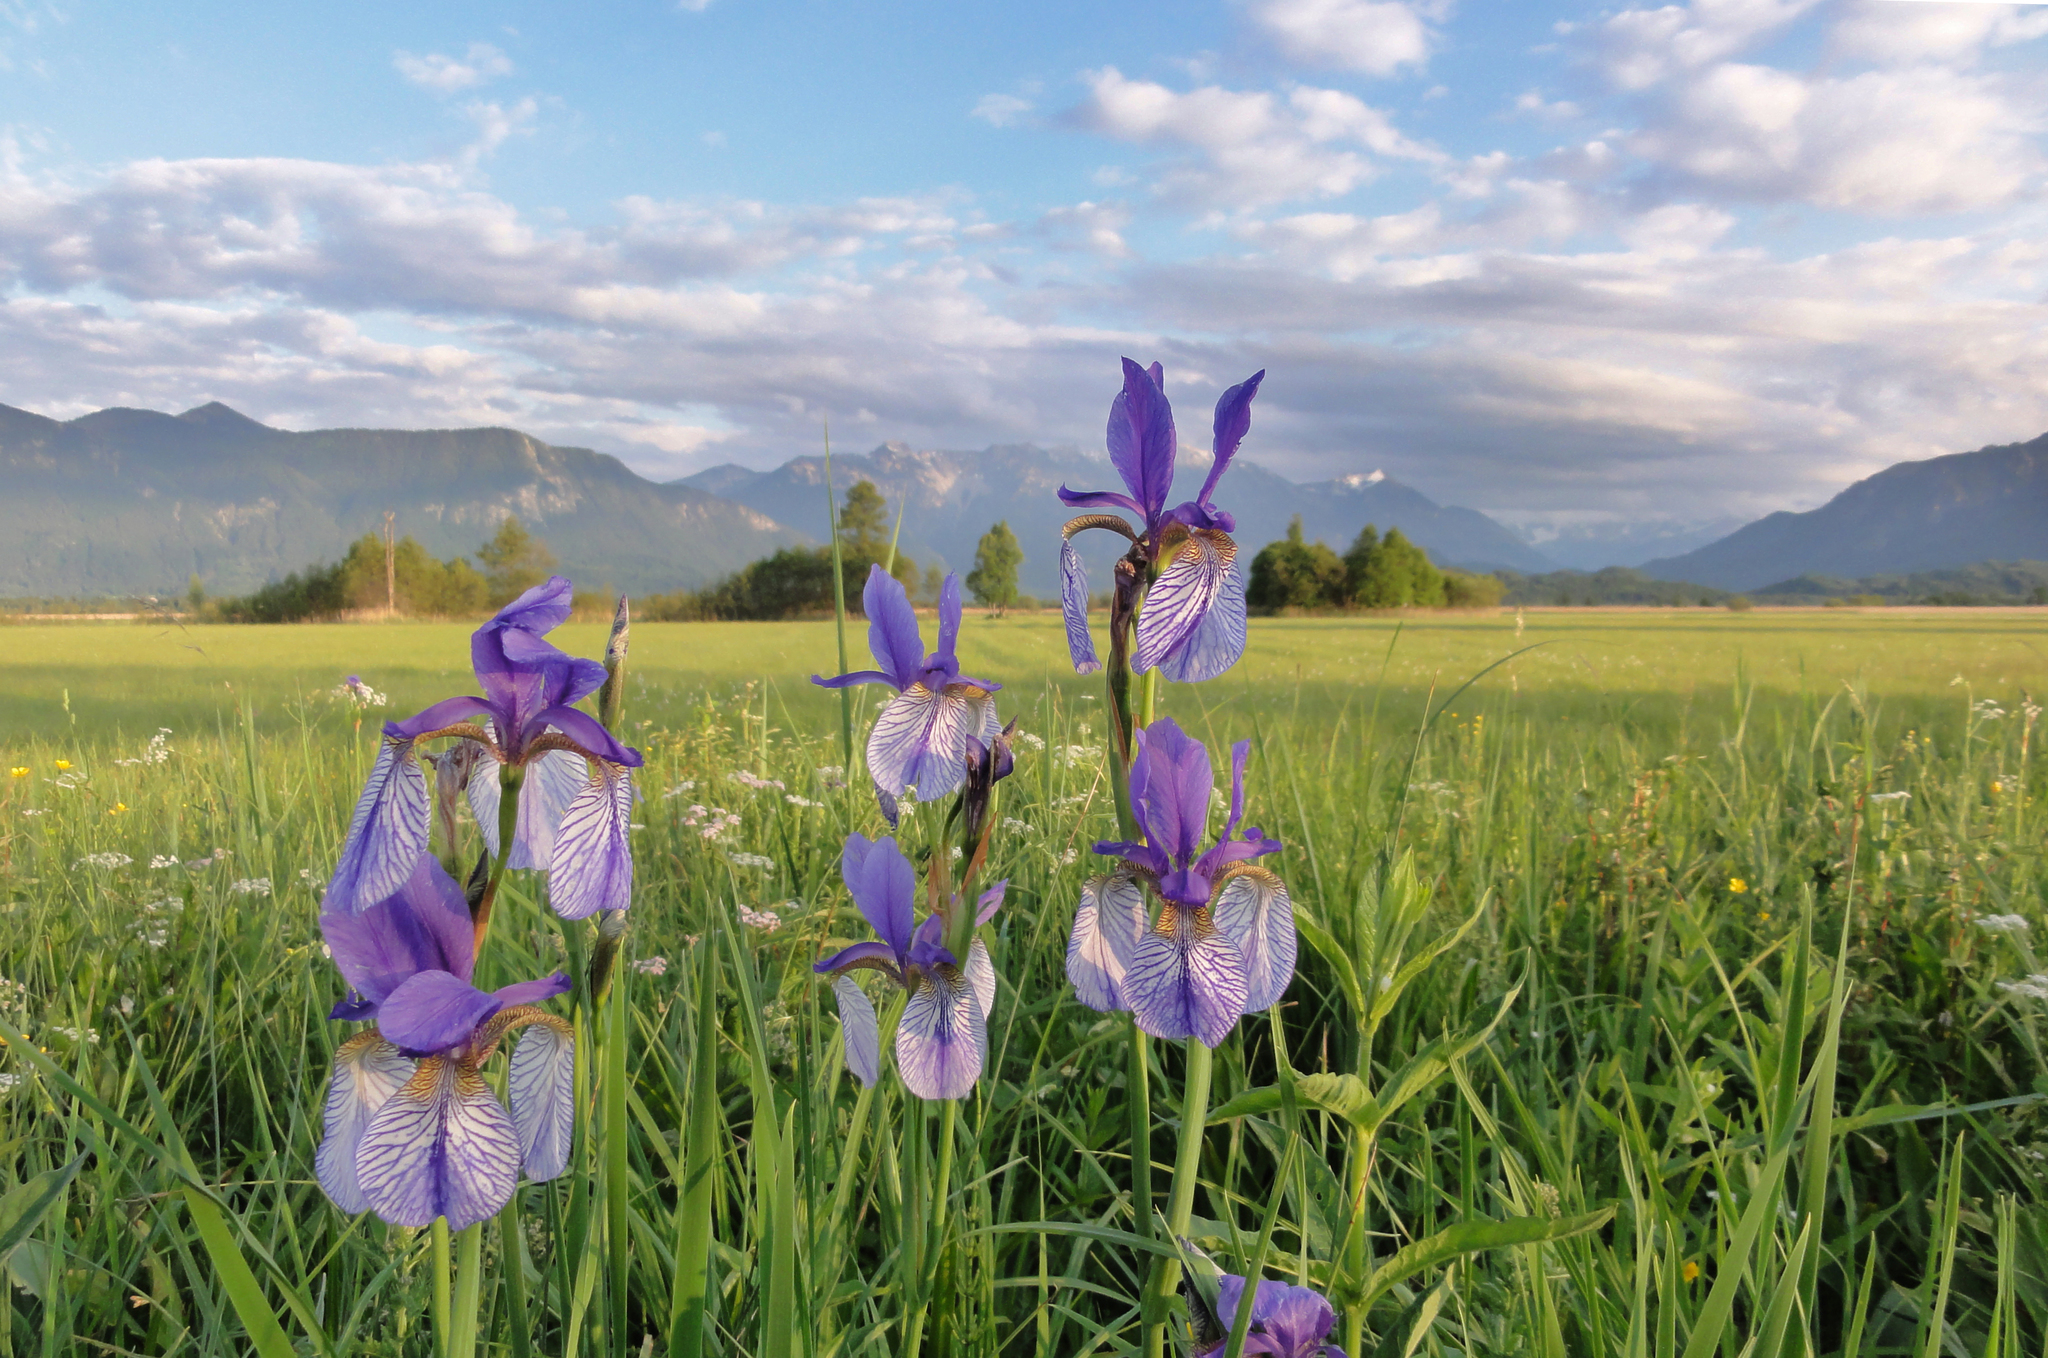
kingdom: Plantae
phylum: Tracheophyta
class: Liliopsida
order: Asparagales
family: Iridaceae
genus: Iris
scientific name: Iris sibirica
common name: Siberian iris
